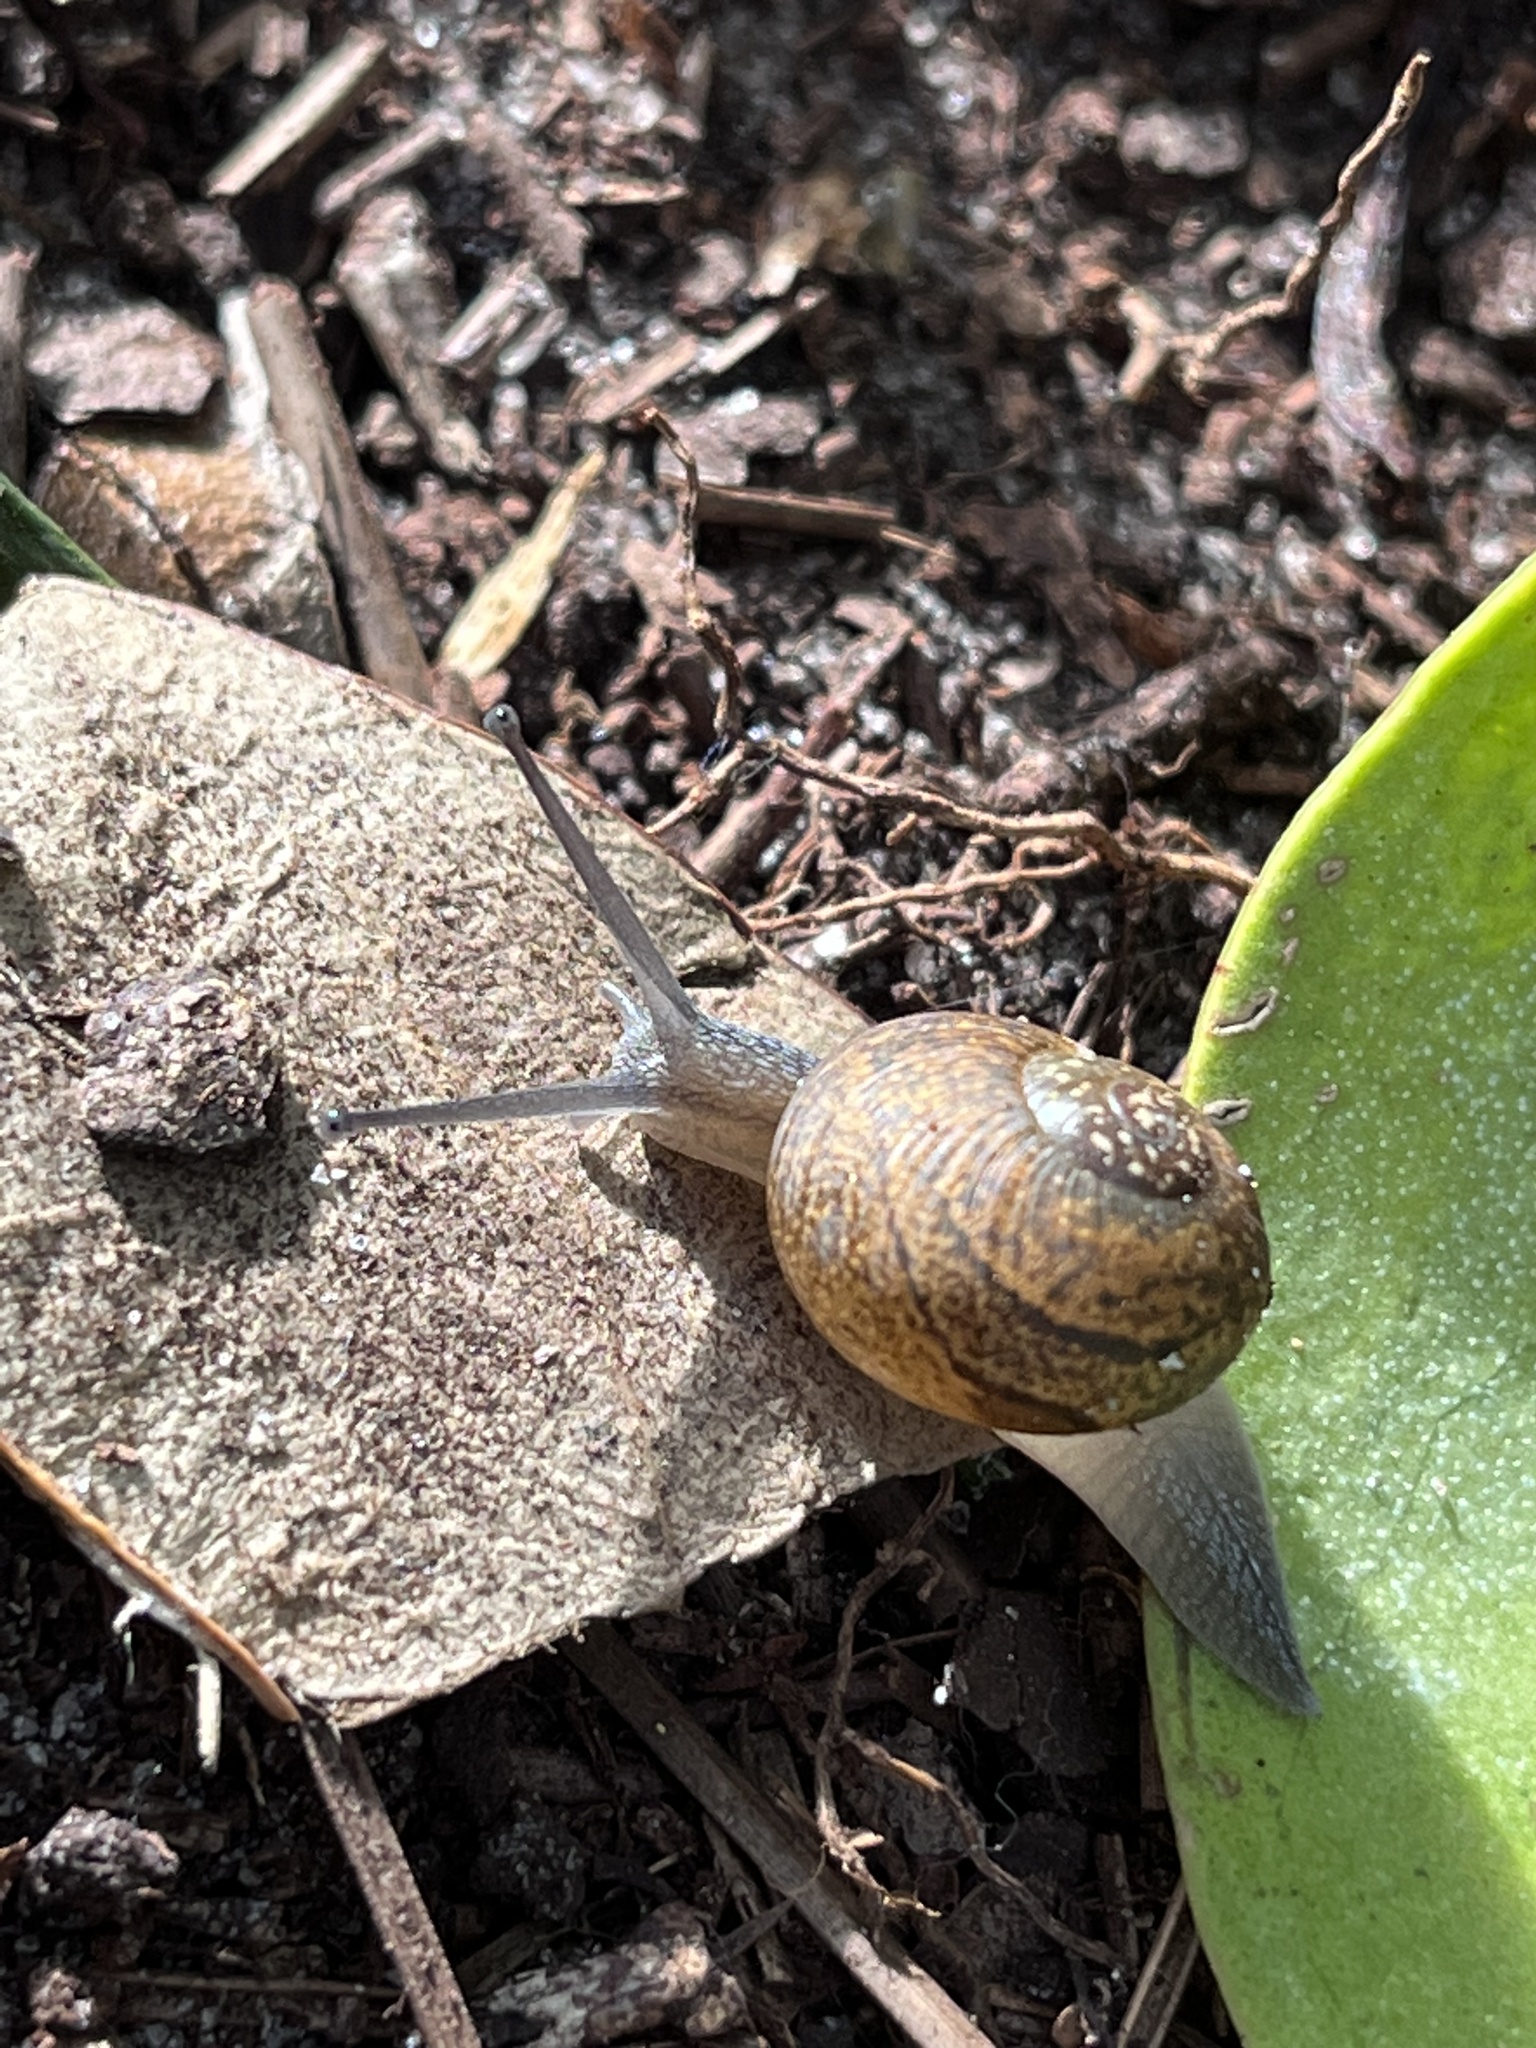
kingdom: Animalia
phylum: Mollusca
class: Gastropoda
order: Stylommatophora
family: Zachrysiidae
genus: Zachrysia
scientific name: Zachrysia provisoria
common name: Garden zachrysia
